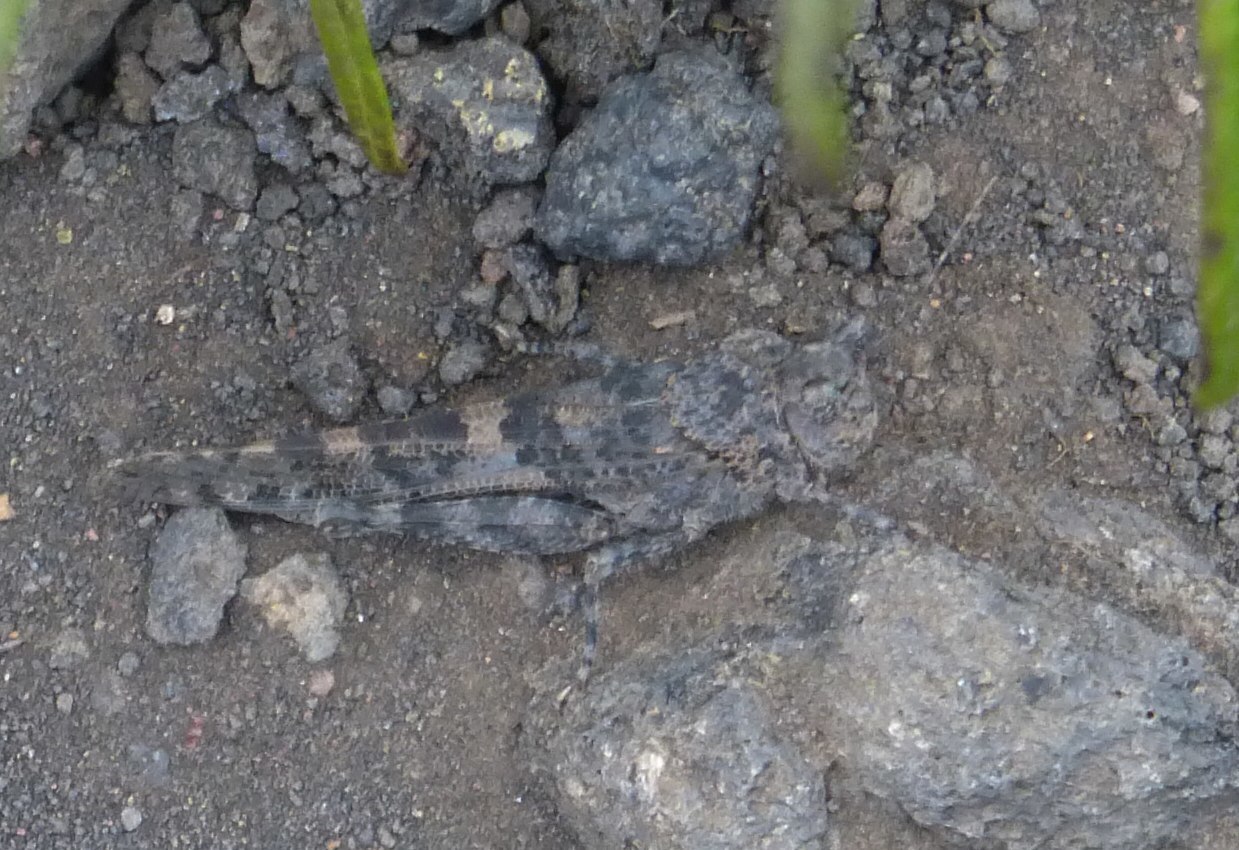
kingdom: Animalia
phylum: Arthropoda
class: Insecta
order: Orthoptera
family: Acrididae
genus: Sphingonotus
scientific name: Sphingonotus rubescens
